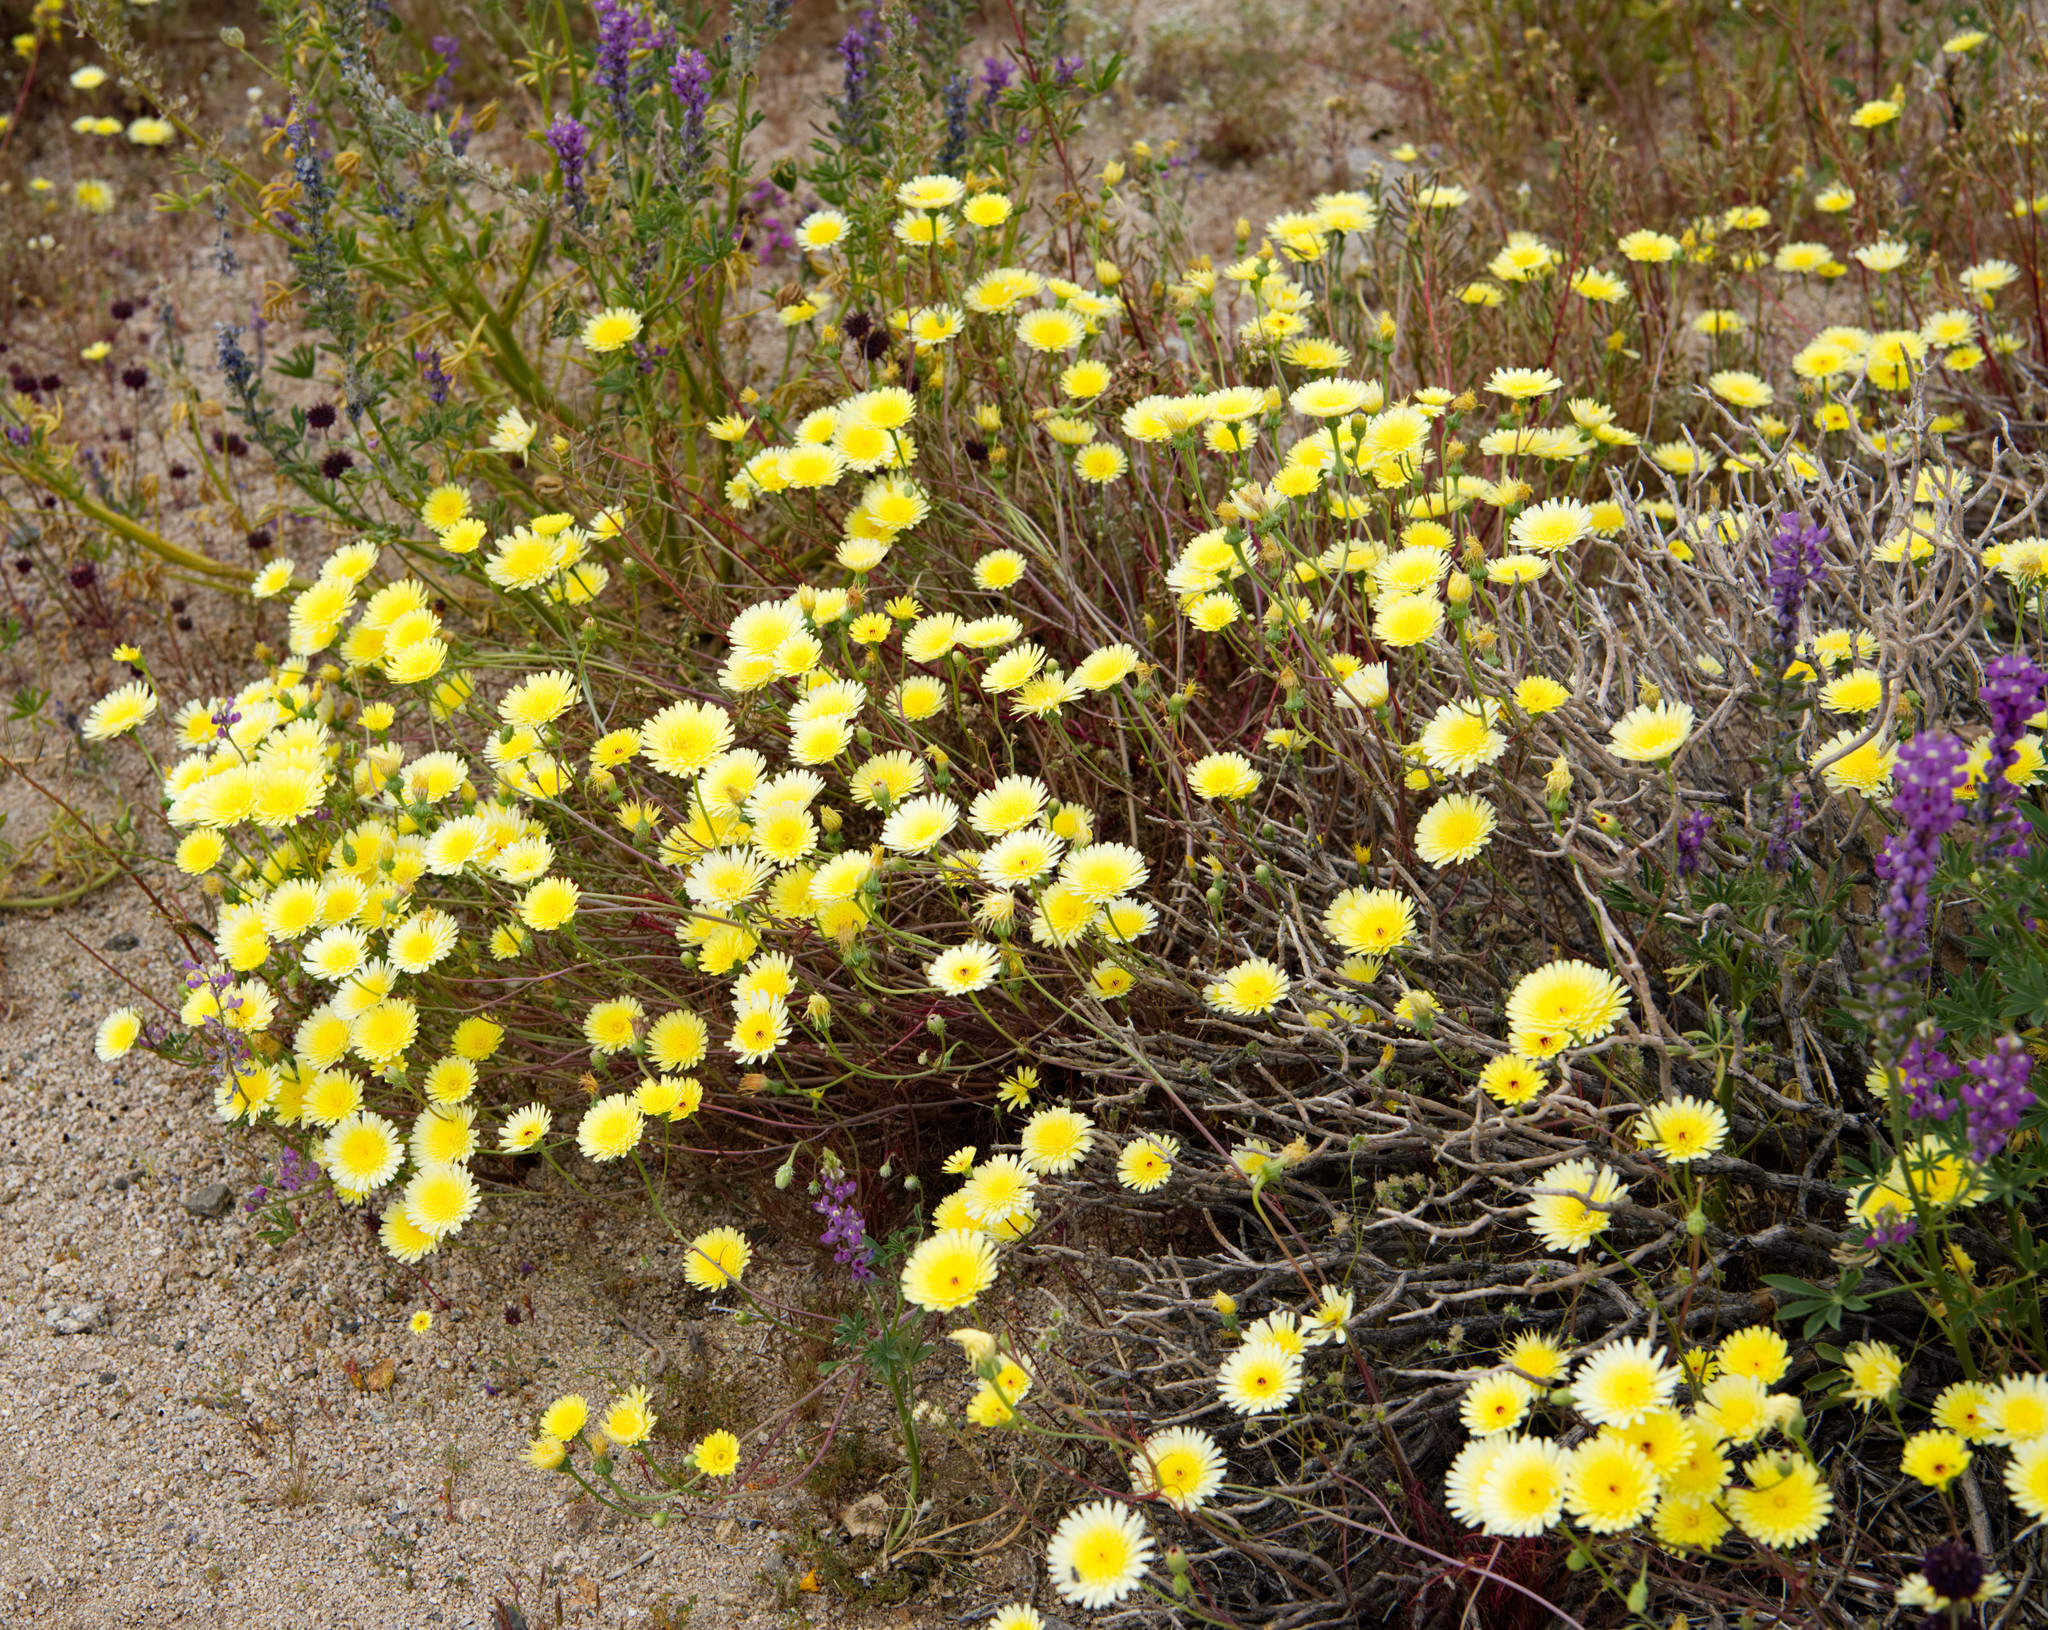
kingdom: Plantae
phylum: Tracheophyta
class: Magnoliopsida
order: Asterales
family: Asteraceae
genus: Malacothrix
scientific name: Malacothrix glabrata
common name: Smooth desert-dandelion
